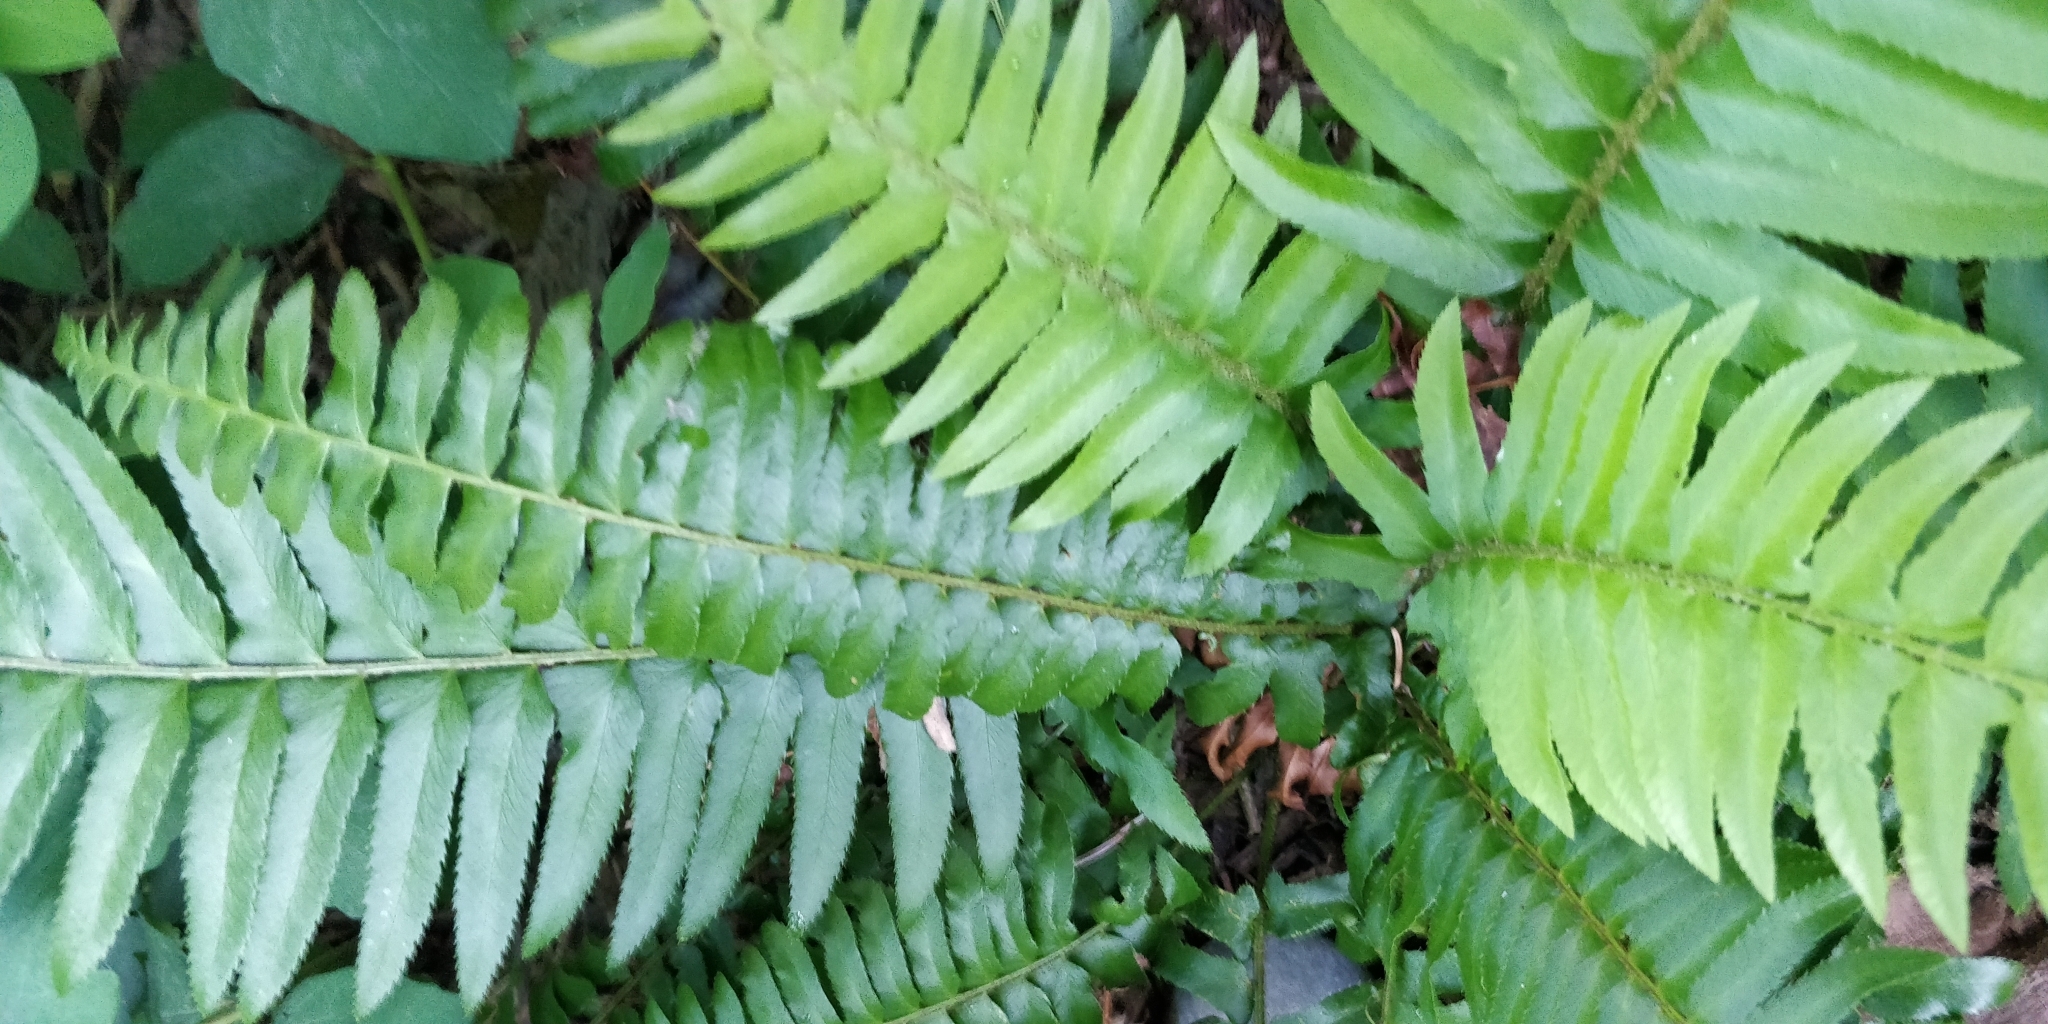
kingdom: Plantae
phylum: Tracheophyta
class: Polypodiopsida
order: Polypodiales
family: Dryopteridaceae
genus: Polystichum
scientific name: Polystichum munitum
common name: Western sword-fern
